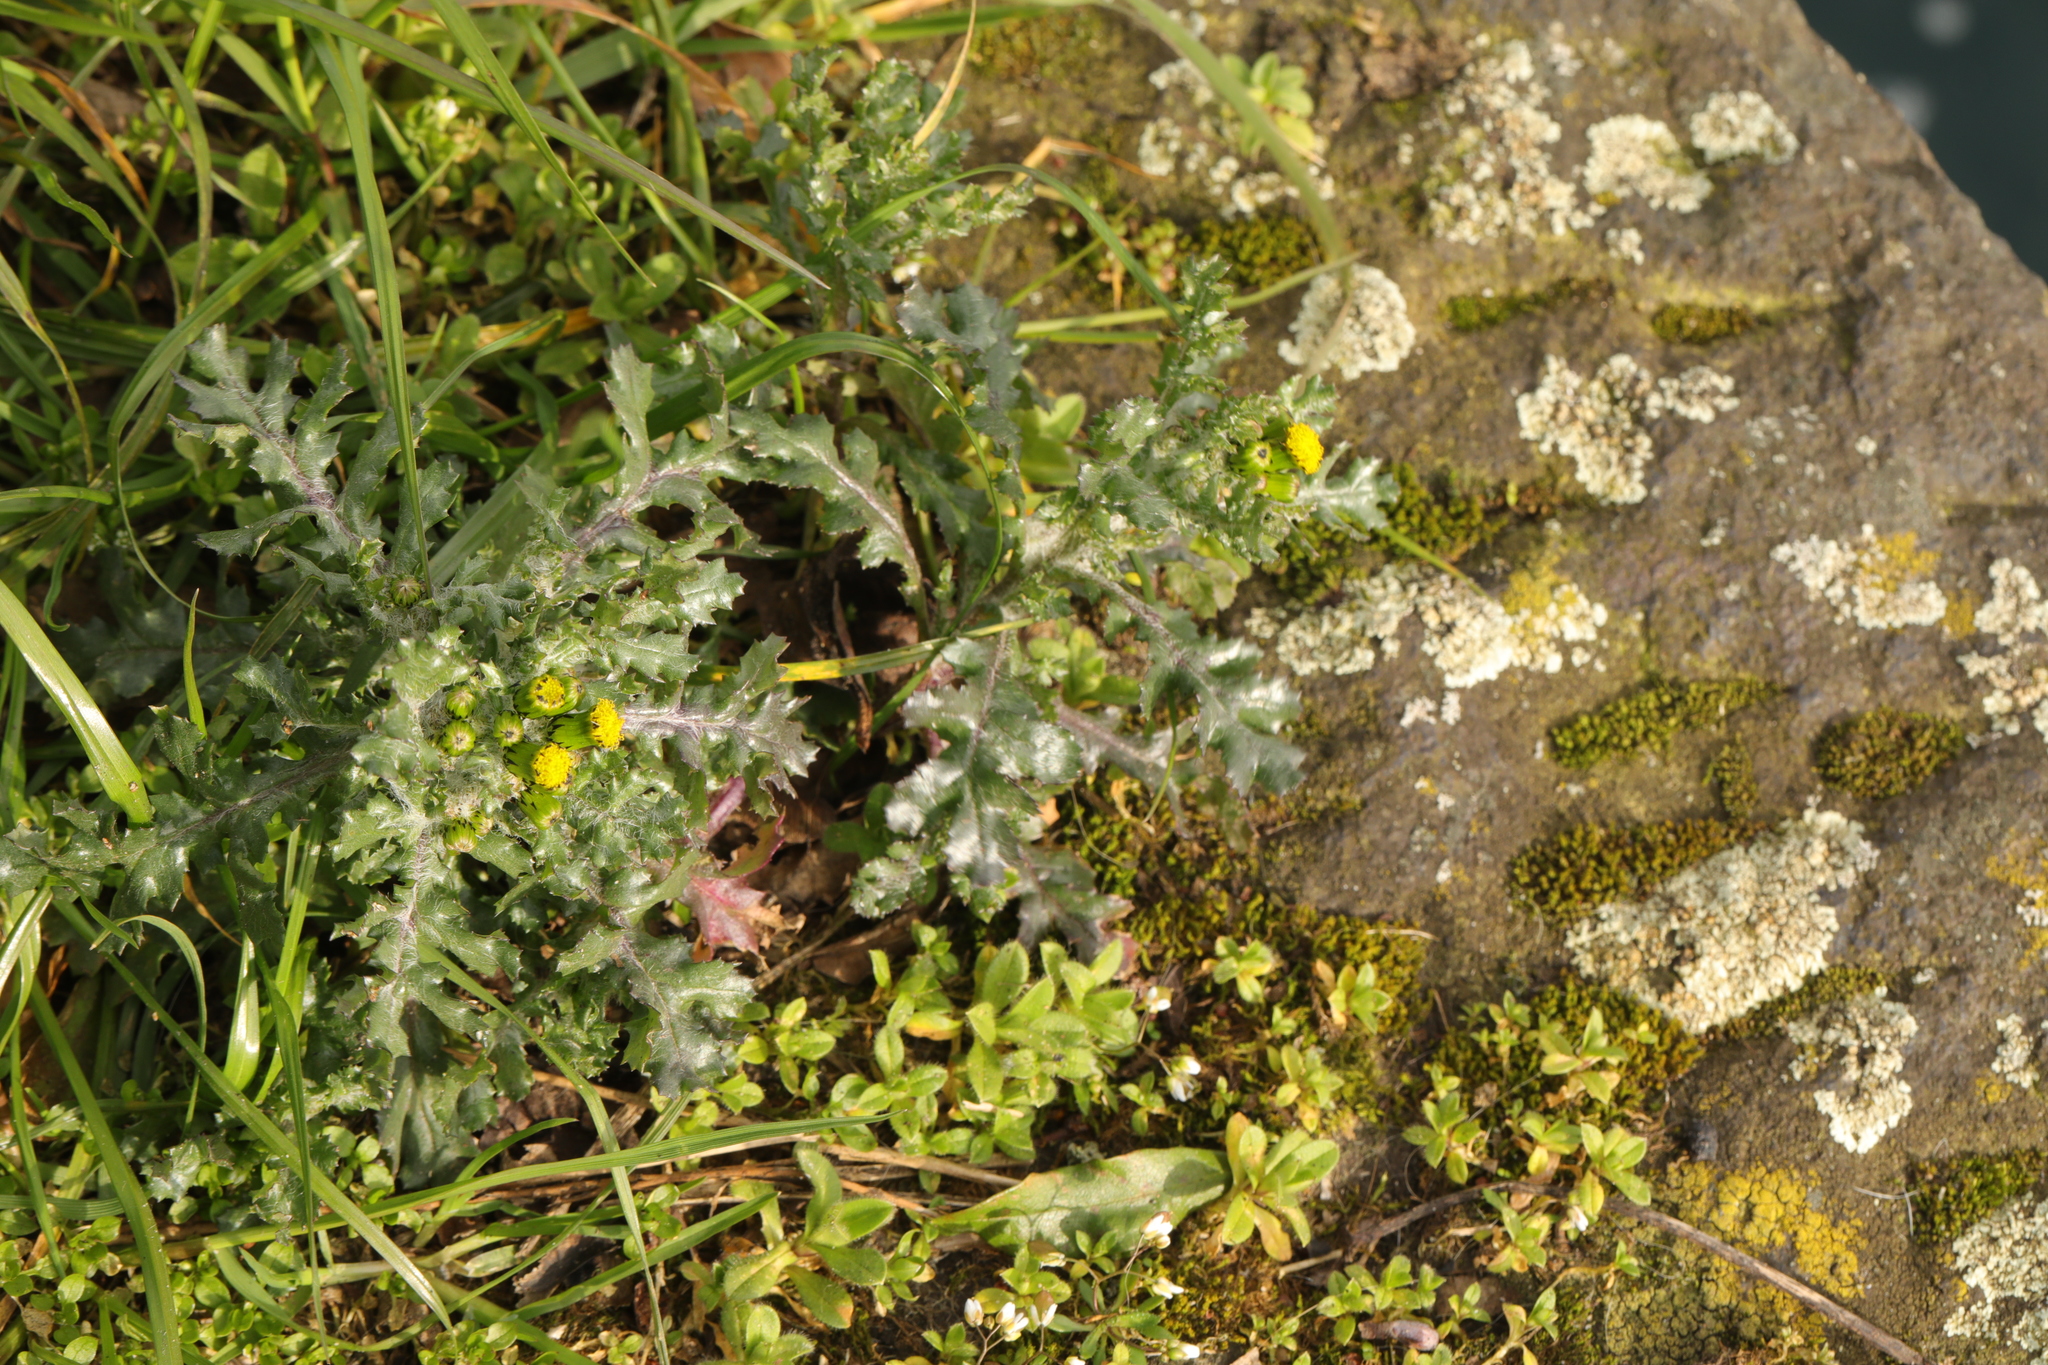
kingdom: Plantae
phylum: Tracheophyta
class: Magnoliopsida
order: Asterales
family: Asteraceae
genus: Senecio
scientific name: Senecio vulgaris
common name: Old-man-in-the-spring
